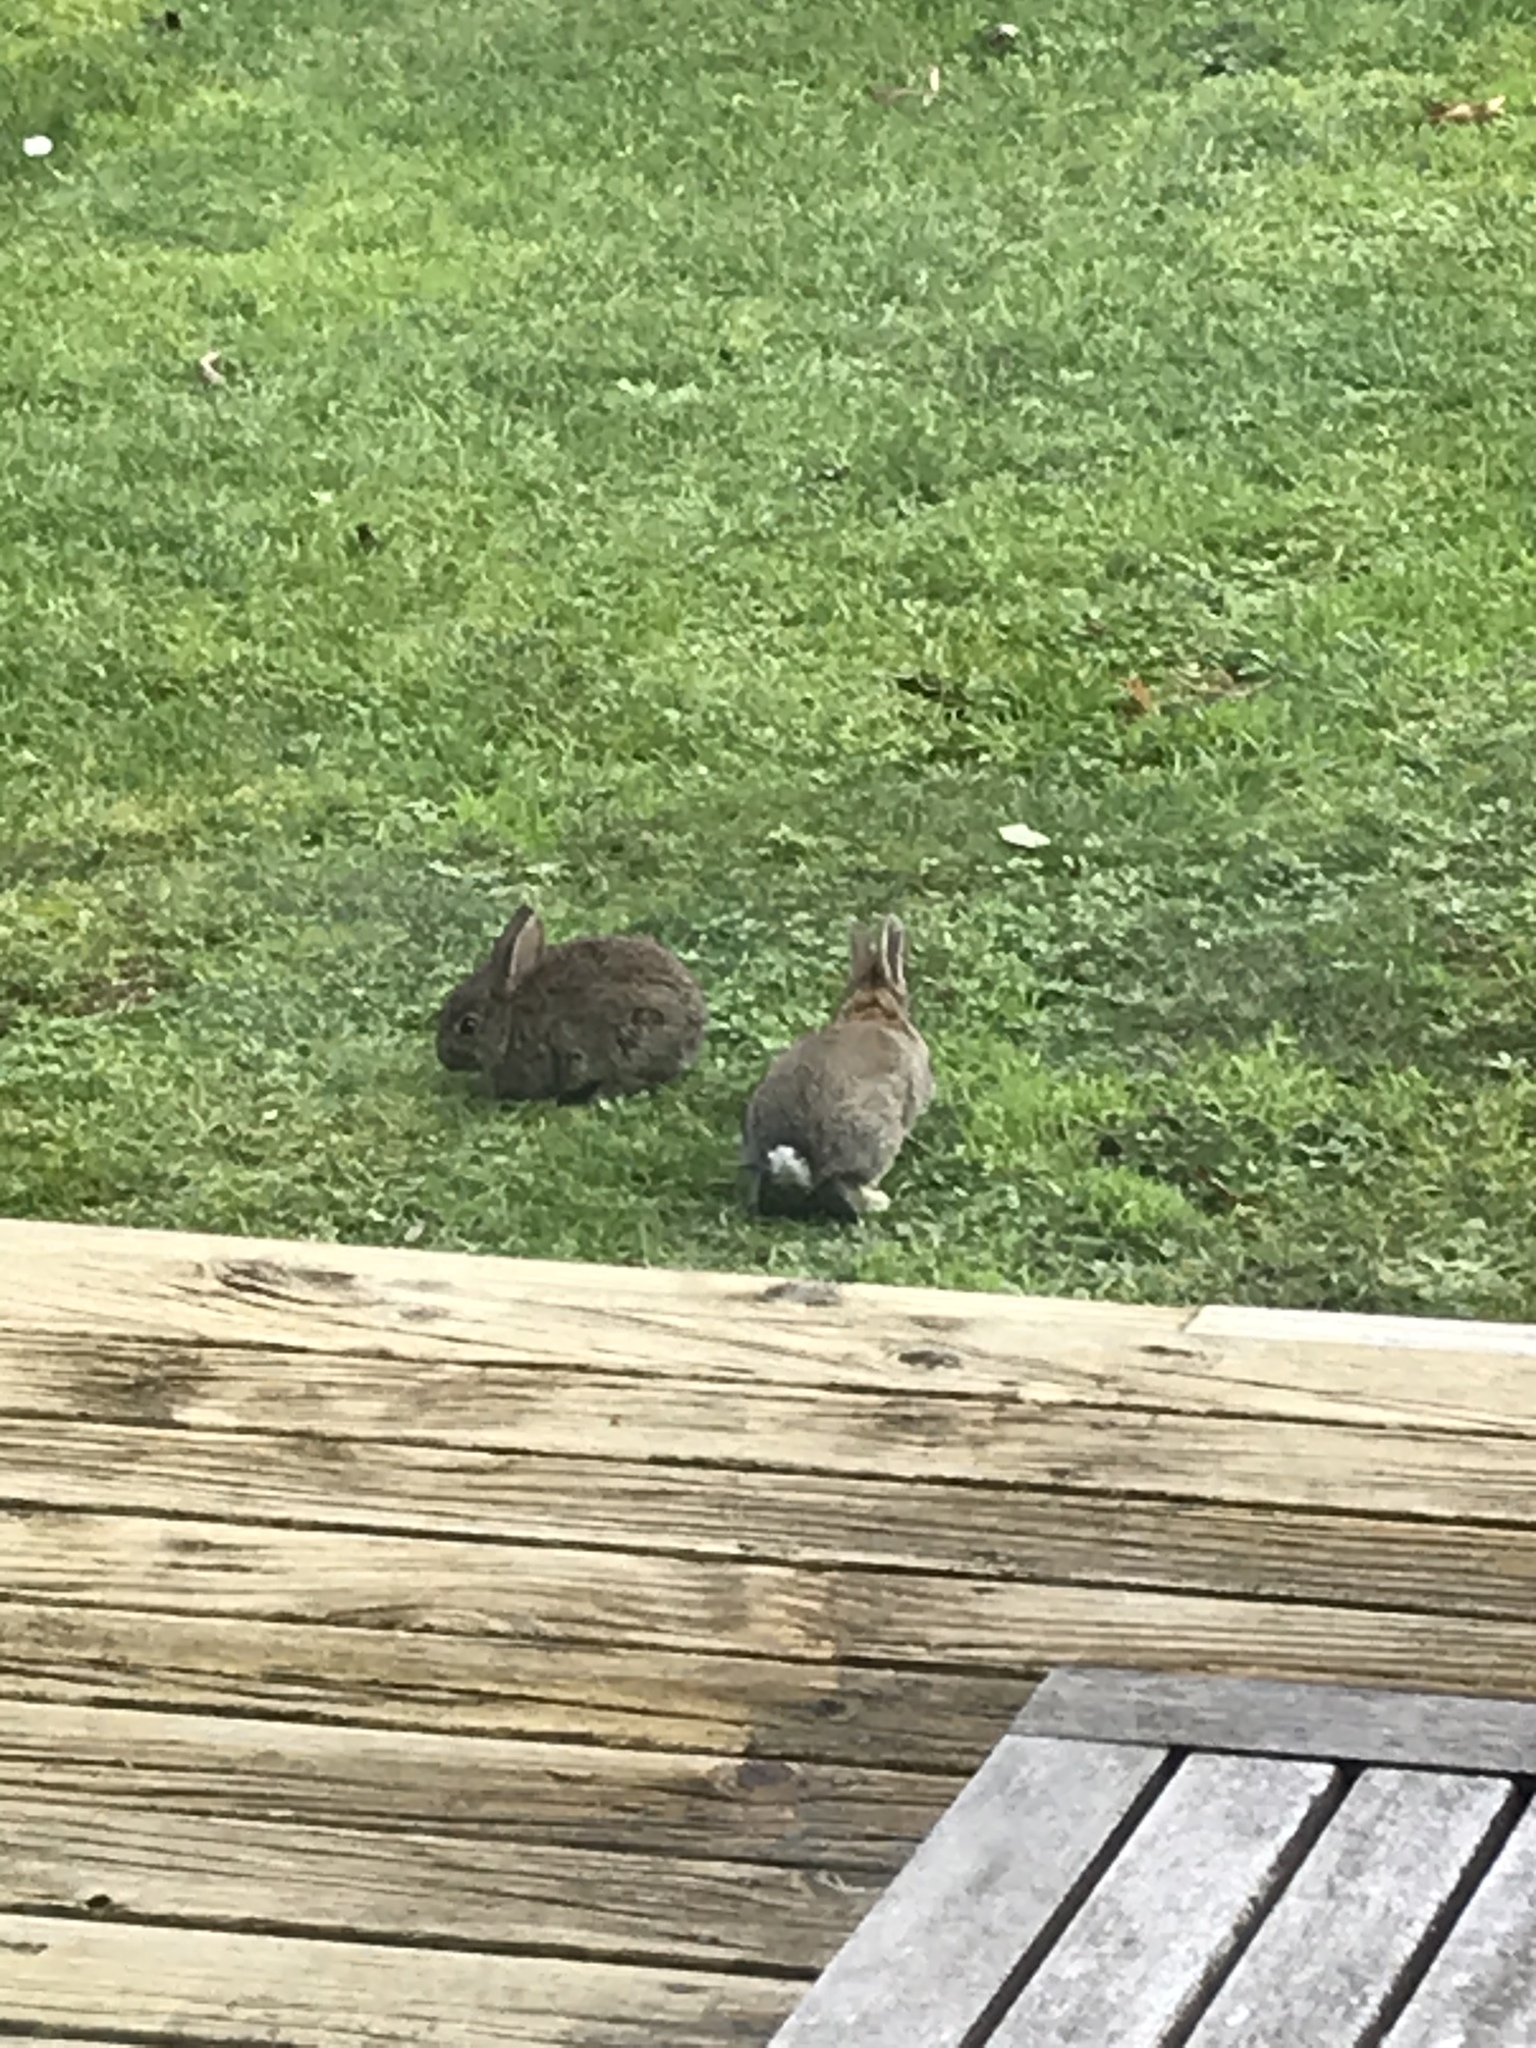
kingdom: Animalia
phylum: Chordata
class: Mammalia
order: Lagomorpha
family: Leporidae
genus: Oryctolagus
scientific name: Oryctolagus cuniculus
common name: European rabbit
